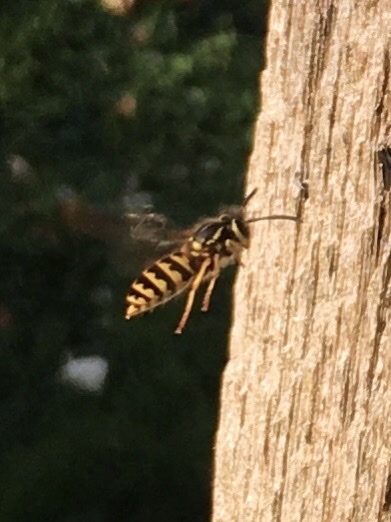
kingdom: Animalia
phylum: Arthropoda
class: Insecta
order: Hymenoptera
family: Vespidae
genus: Vespula
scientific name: Vespula pensylvanica
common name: Western yellowjacket
